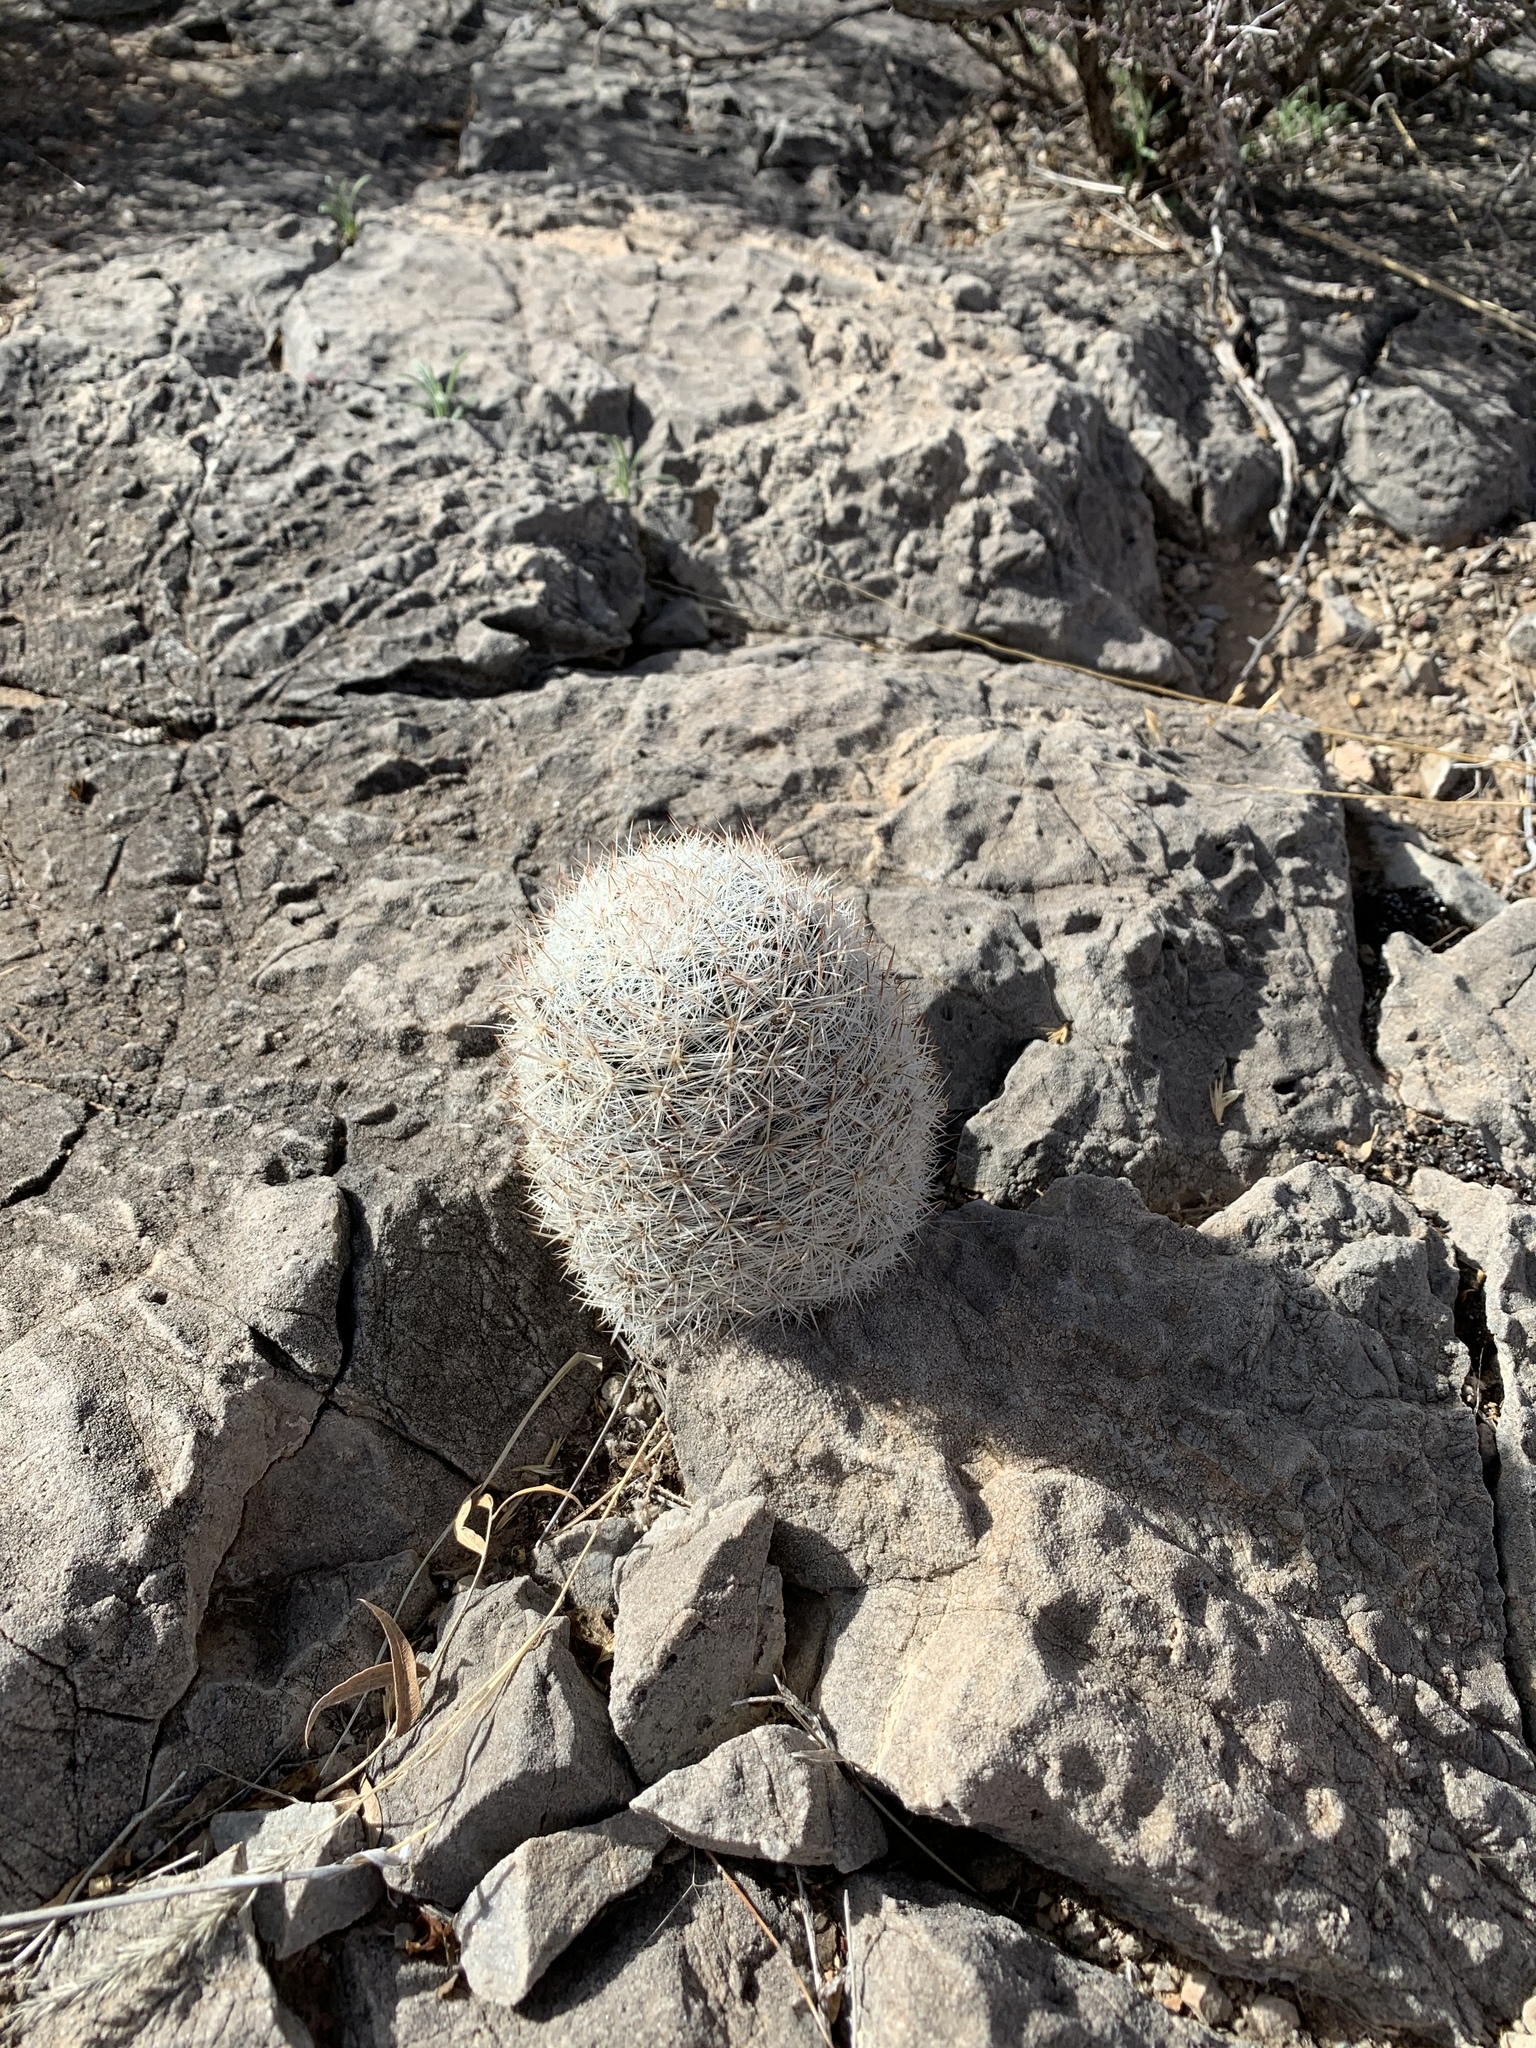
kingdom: Plantae
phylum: Tracheophyta
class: Magnoliopsida
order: Caryophyllales
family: Cactaceae
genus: Pelecyphora
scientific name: Pelecyphora sneedii
